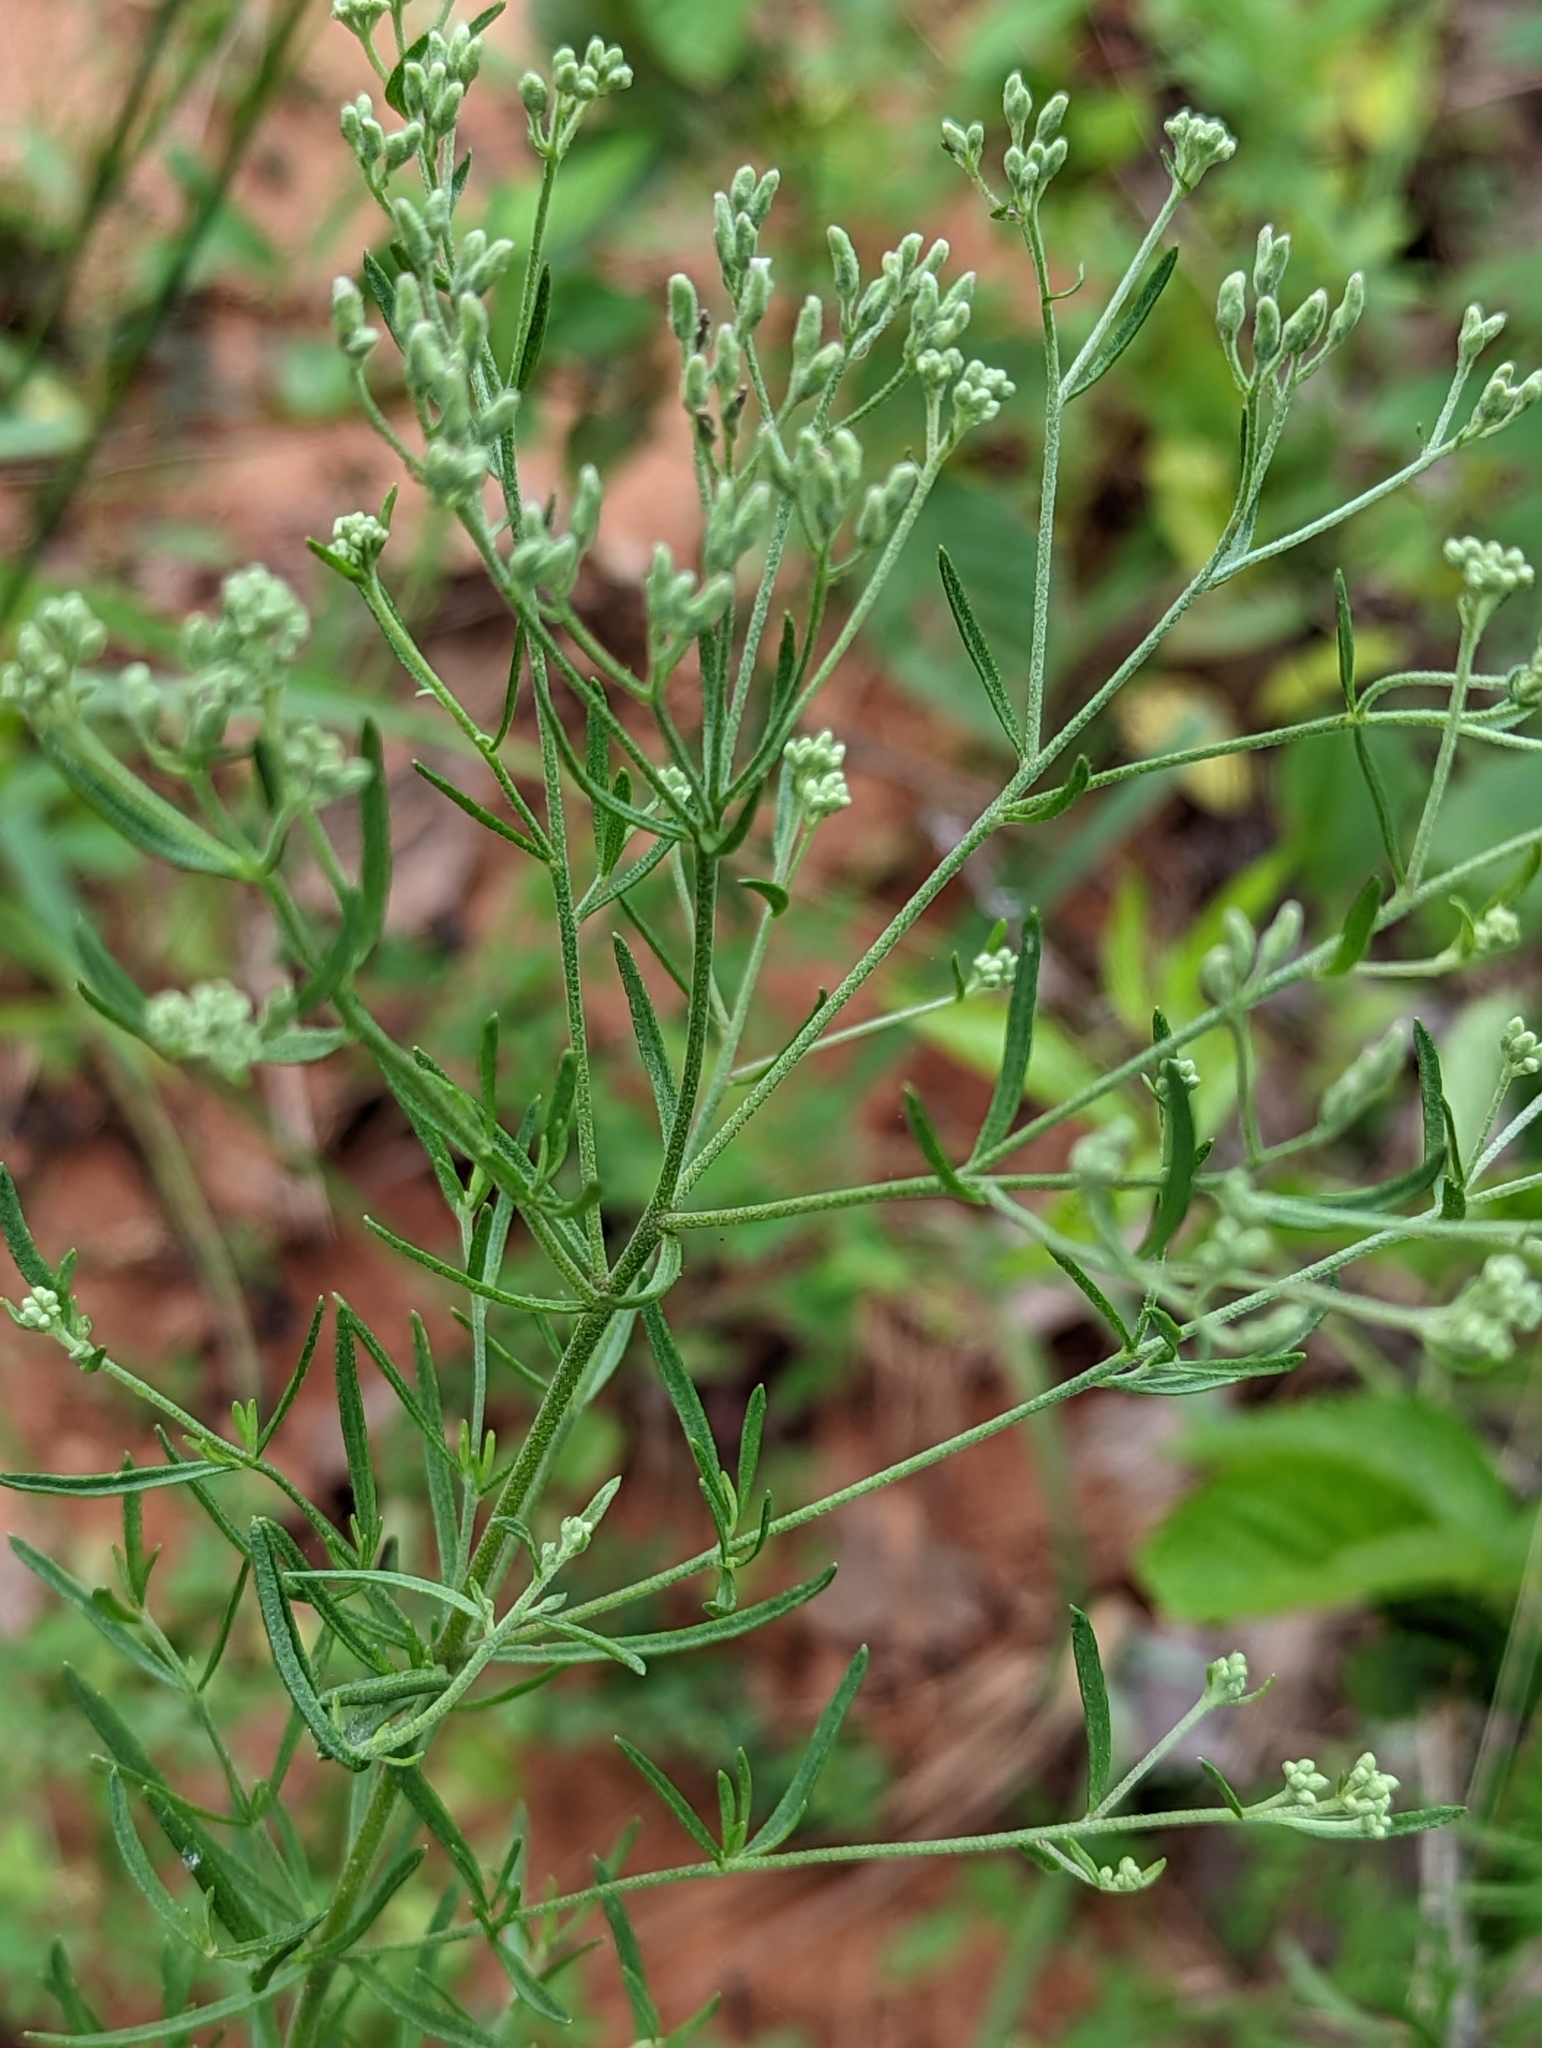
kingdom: Plantae
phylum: Tracheophyta
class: Magnoliopsida
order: Asterales
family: Asteraceae
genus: Eupatorium
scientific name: Eupatorium hyssopifolium
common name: Hyssop-leaf thoroughwort
